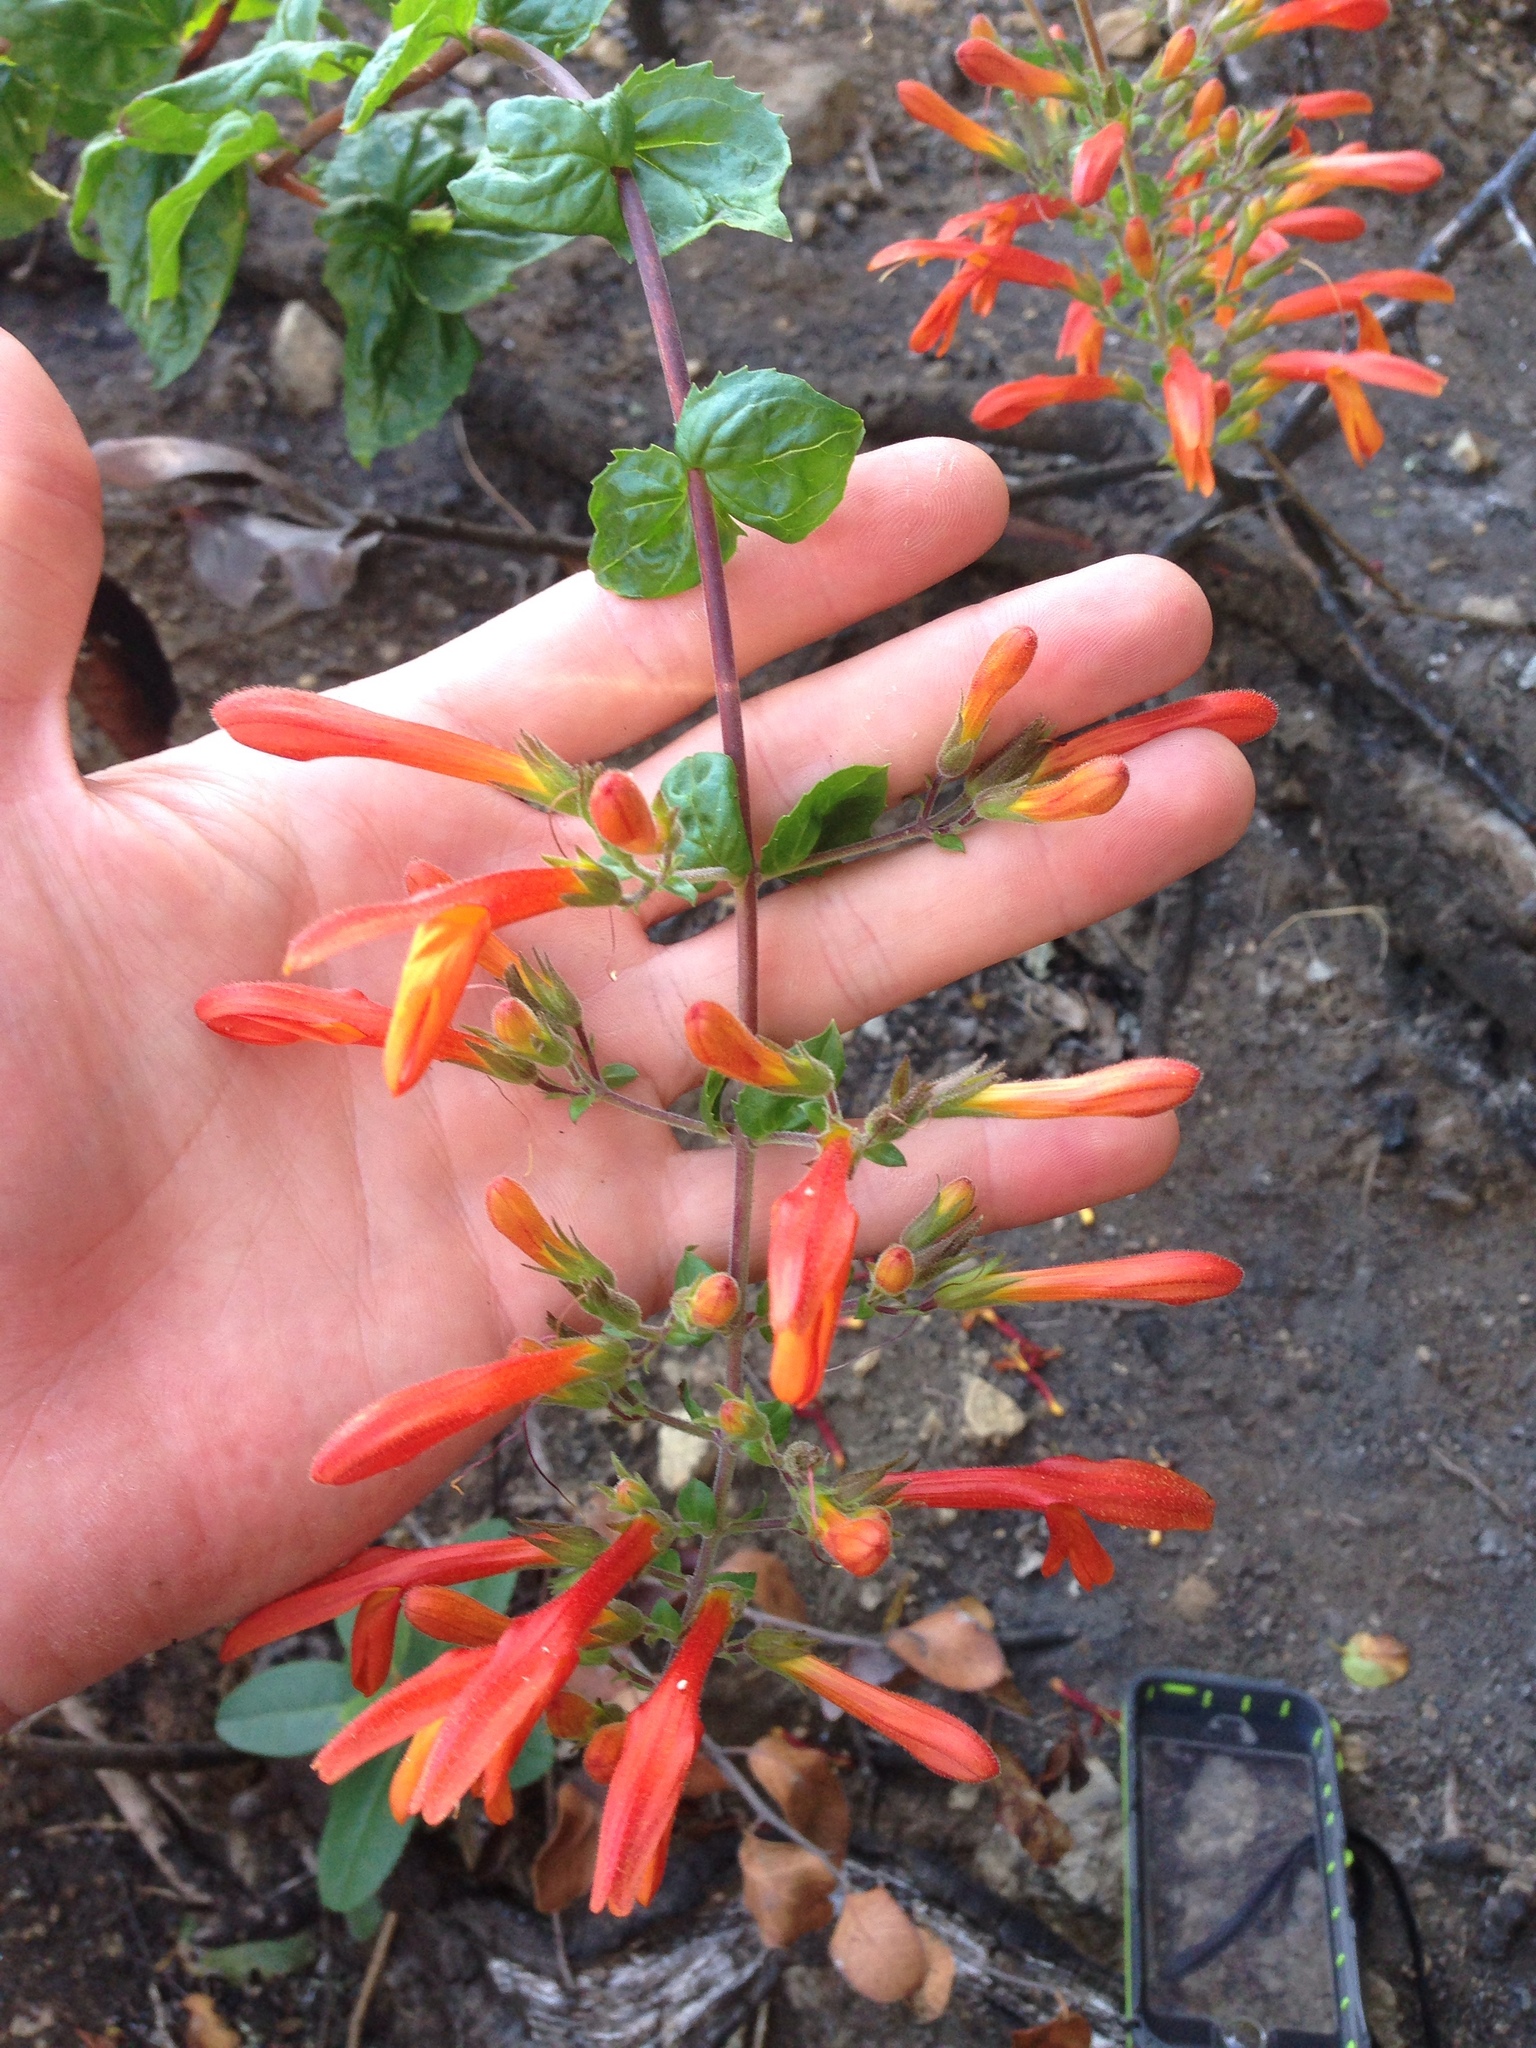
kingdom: Plantae
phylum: Tracheophyta
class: Magnoliopsida
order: Lamiales
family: Plantaginaceae
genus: Keckiella
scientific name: Keckiella cordifolia
